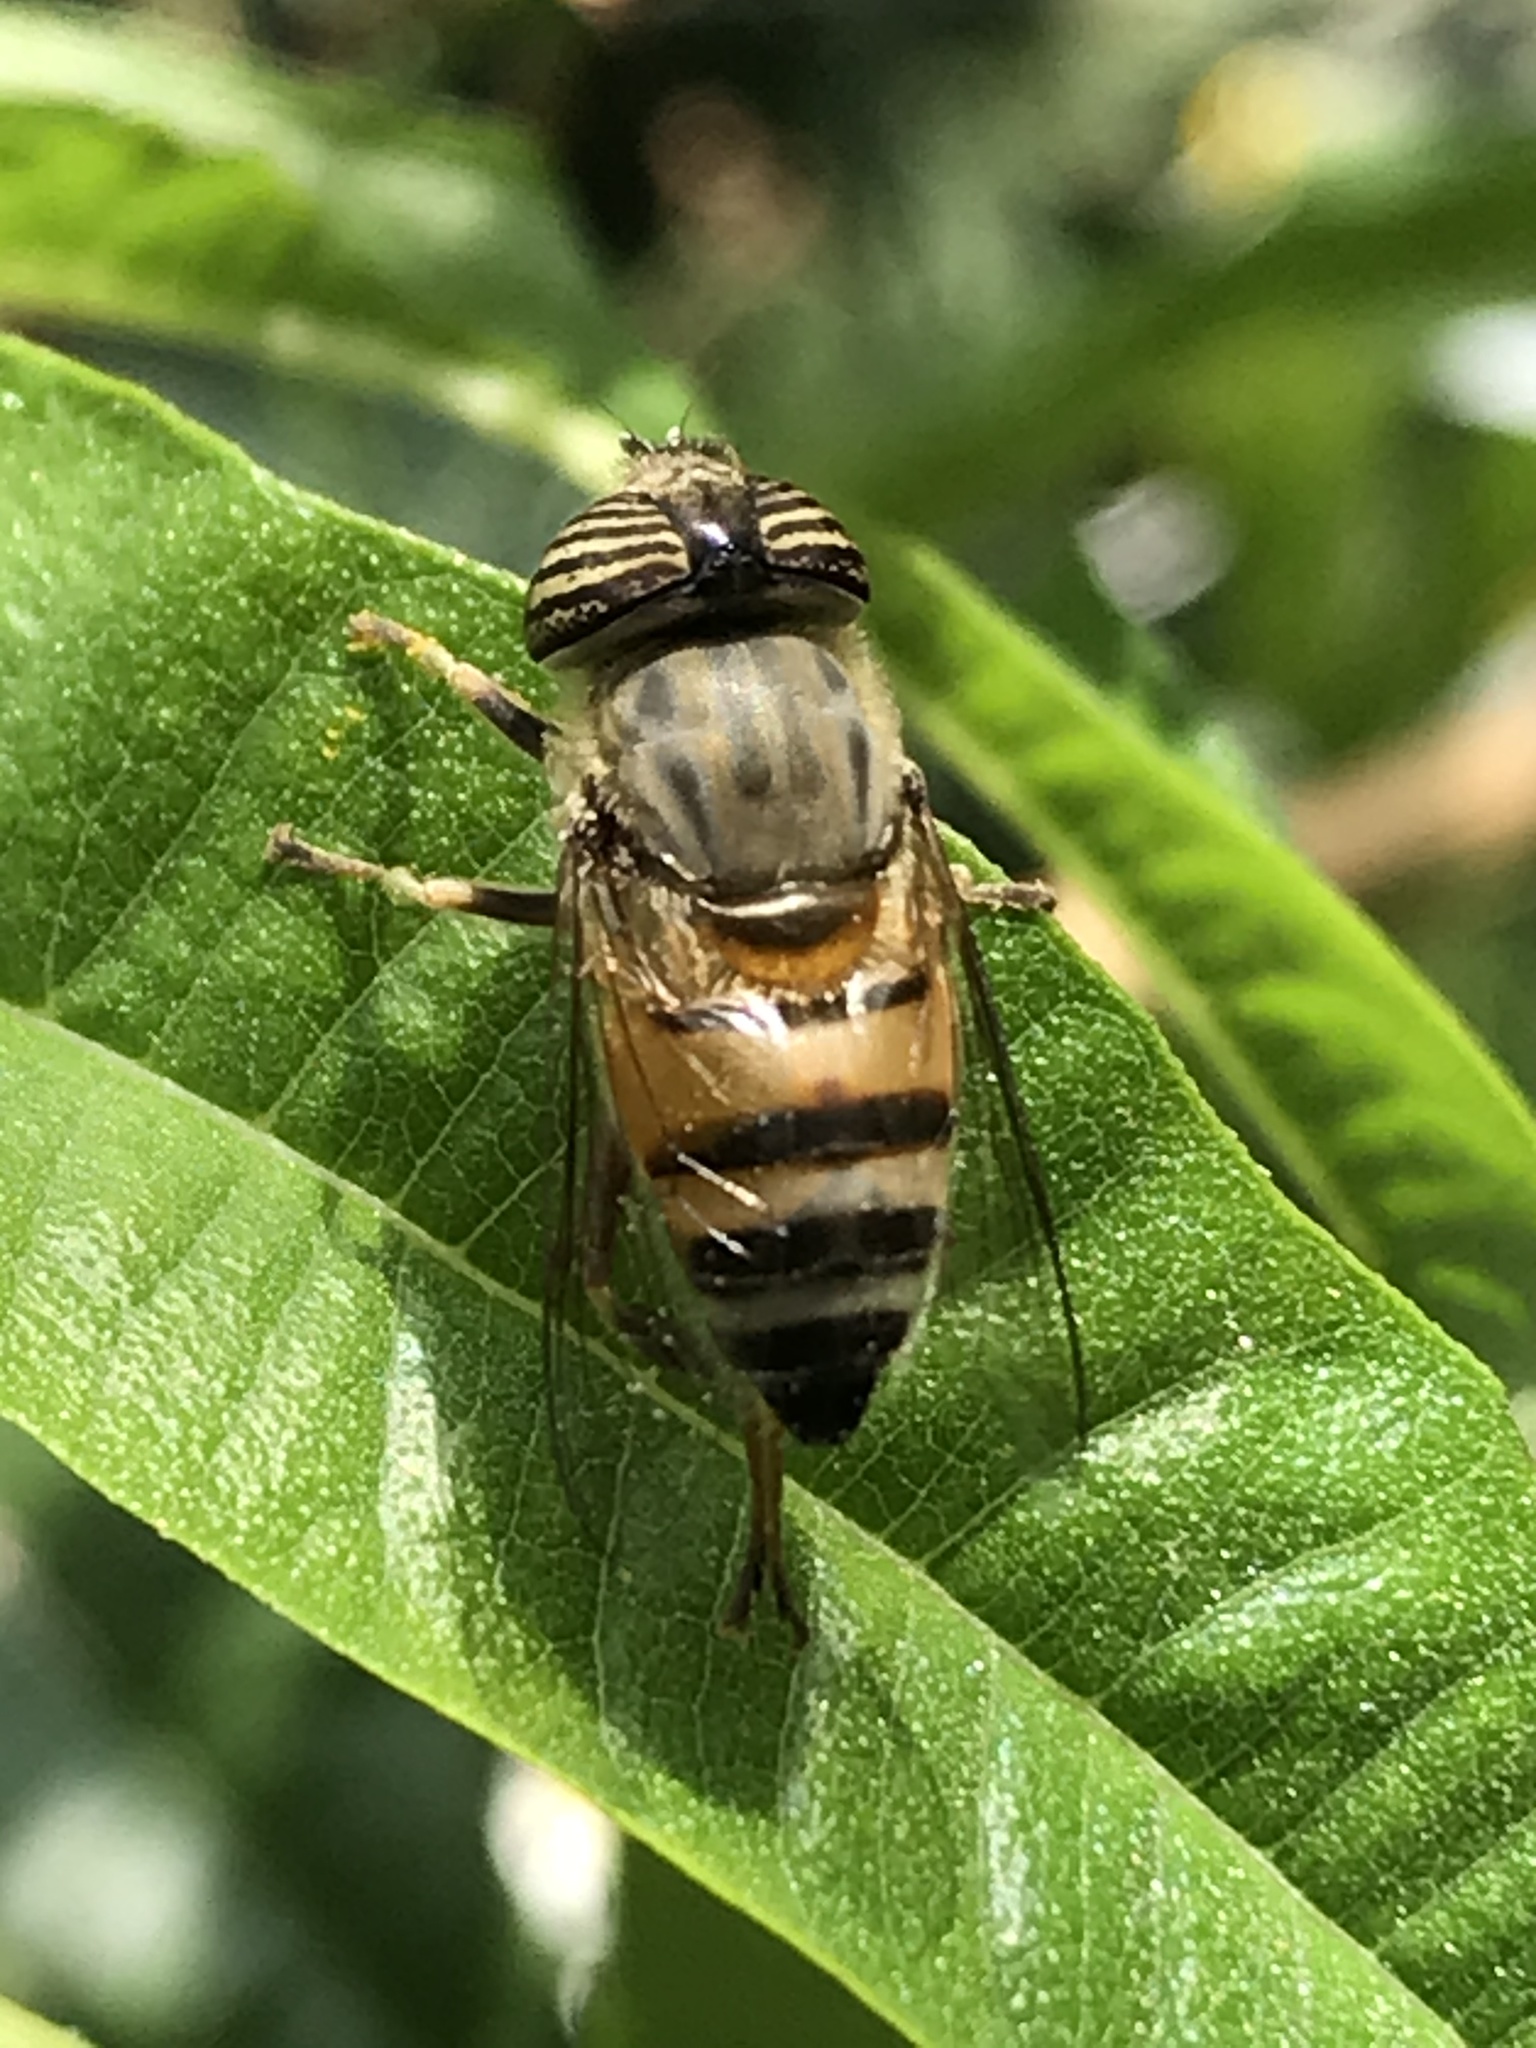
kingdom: Animalia
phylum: Arthropoda
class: Insecta
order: Diptera
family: Syrphidae
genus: Eristalinus
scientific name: Eristalinus taeniops
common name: Syrphid fly
